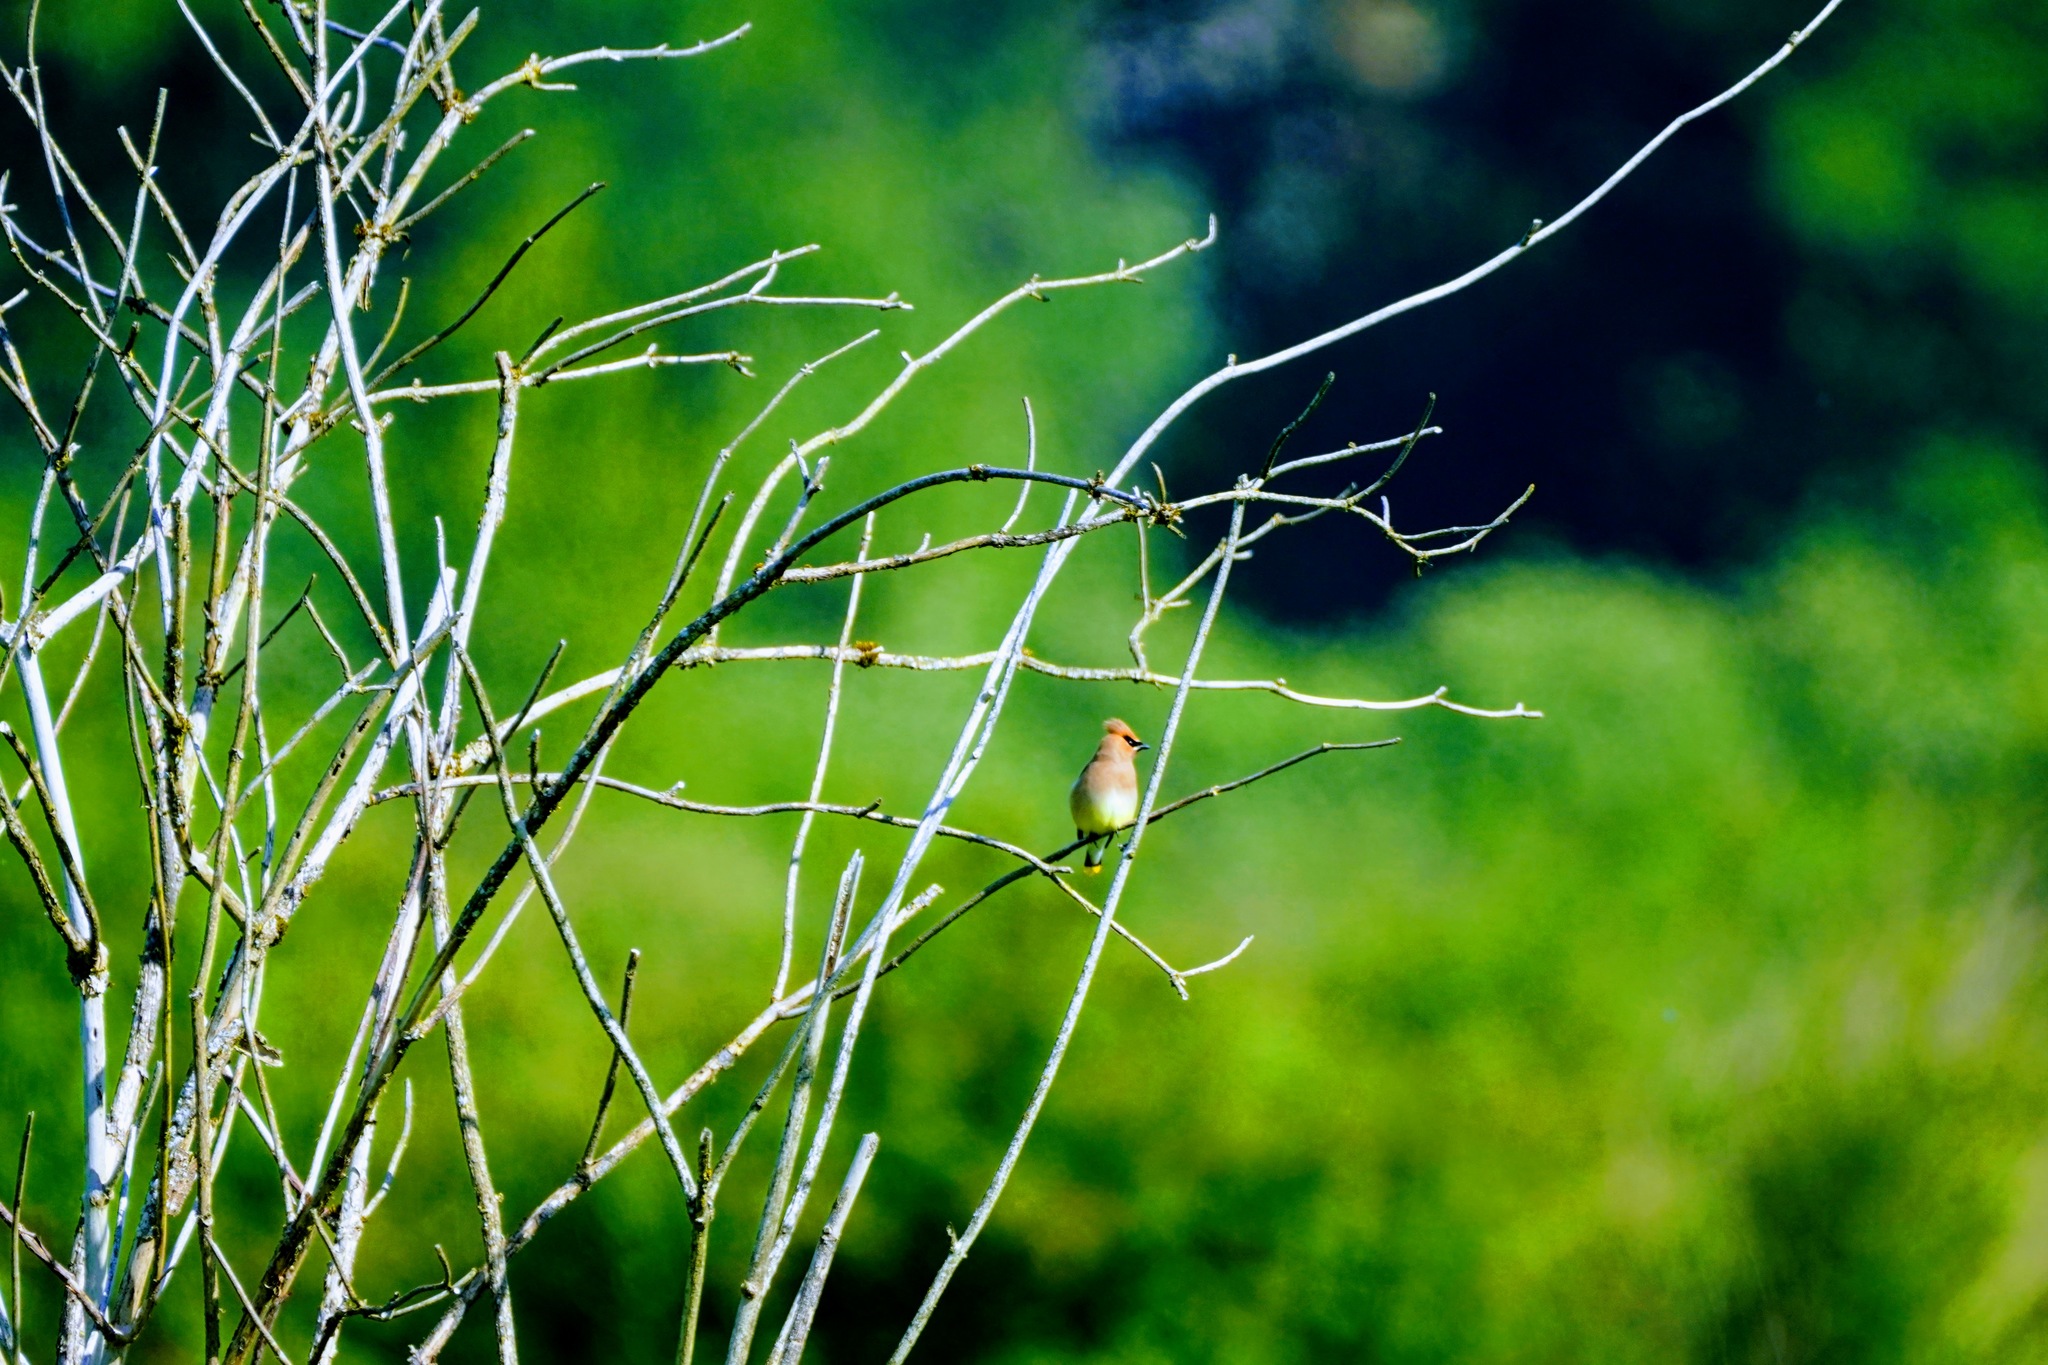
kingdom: Animalia
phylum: Chordata
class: Aves
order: Passeriformes
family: Bombycillidae
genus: Bombycilla
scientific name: Bombycilla cedrorum
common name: Cedar waxwing
